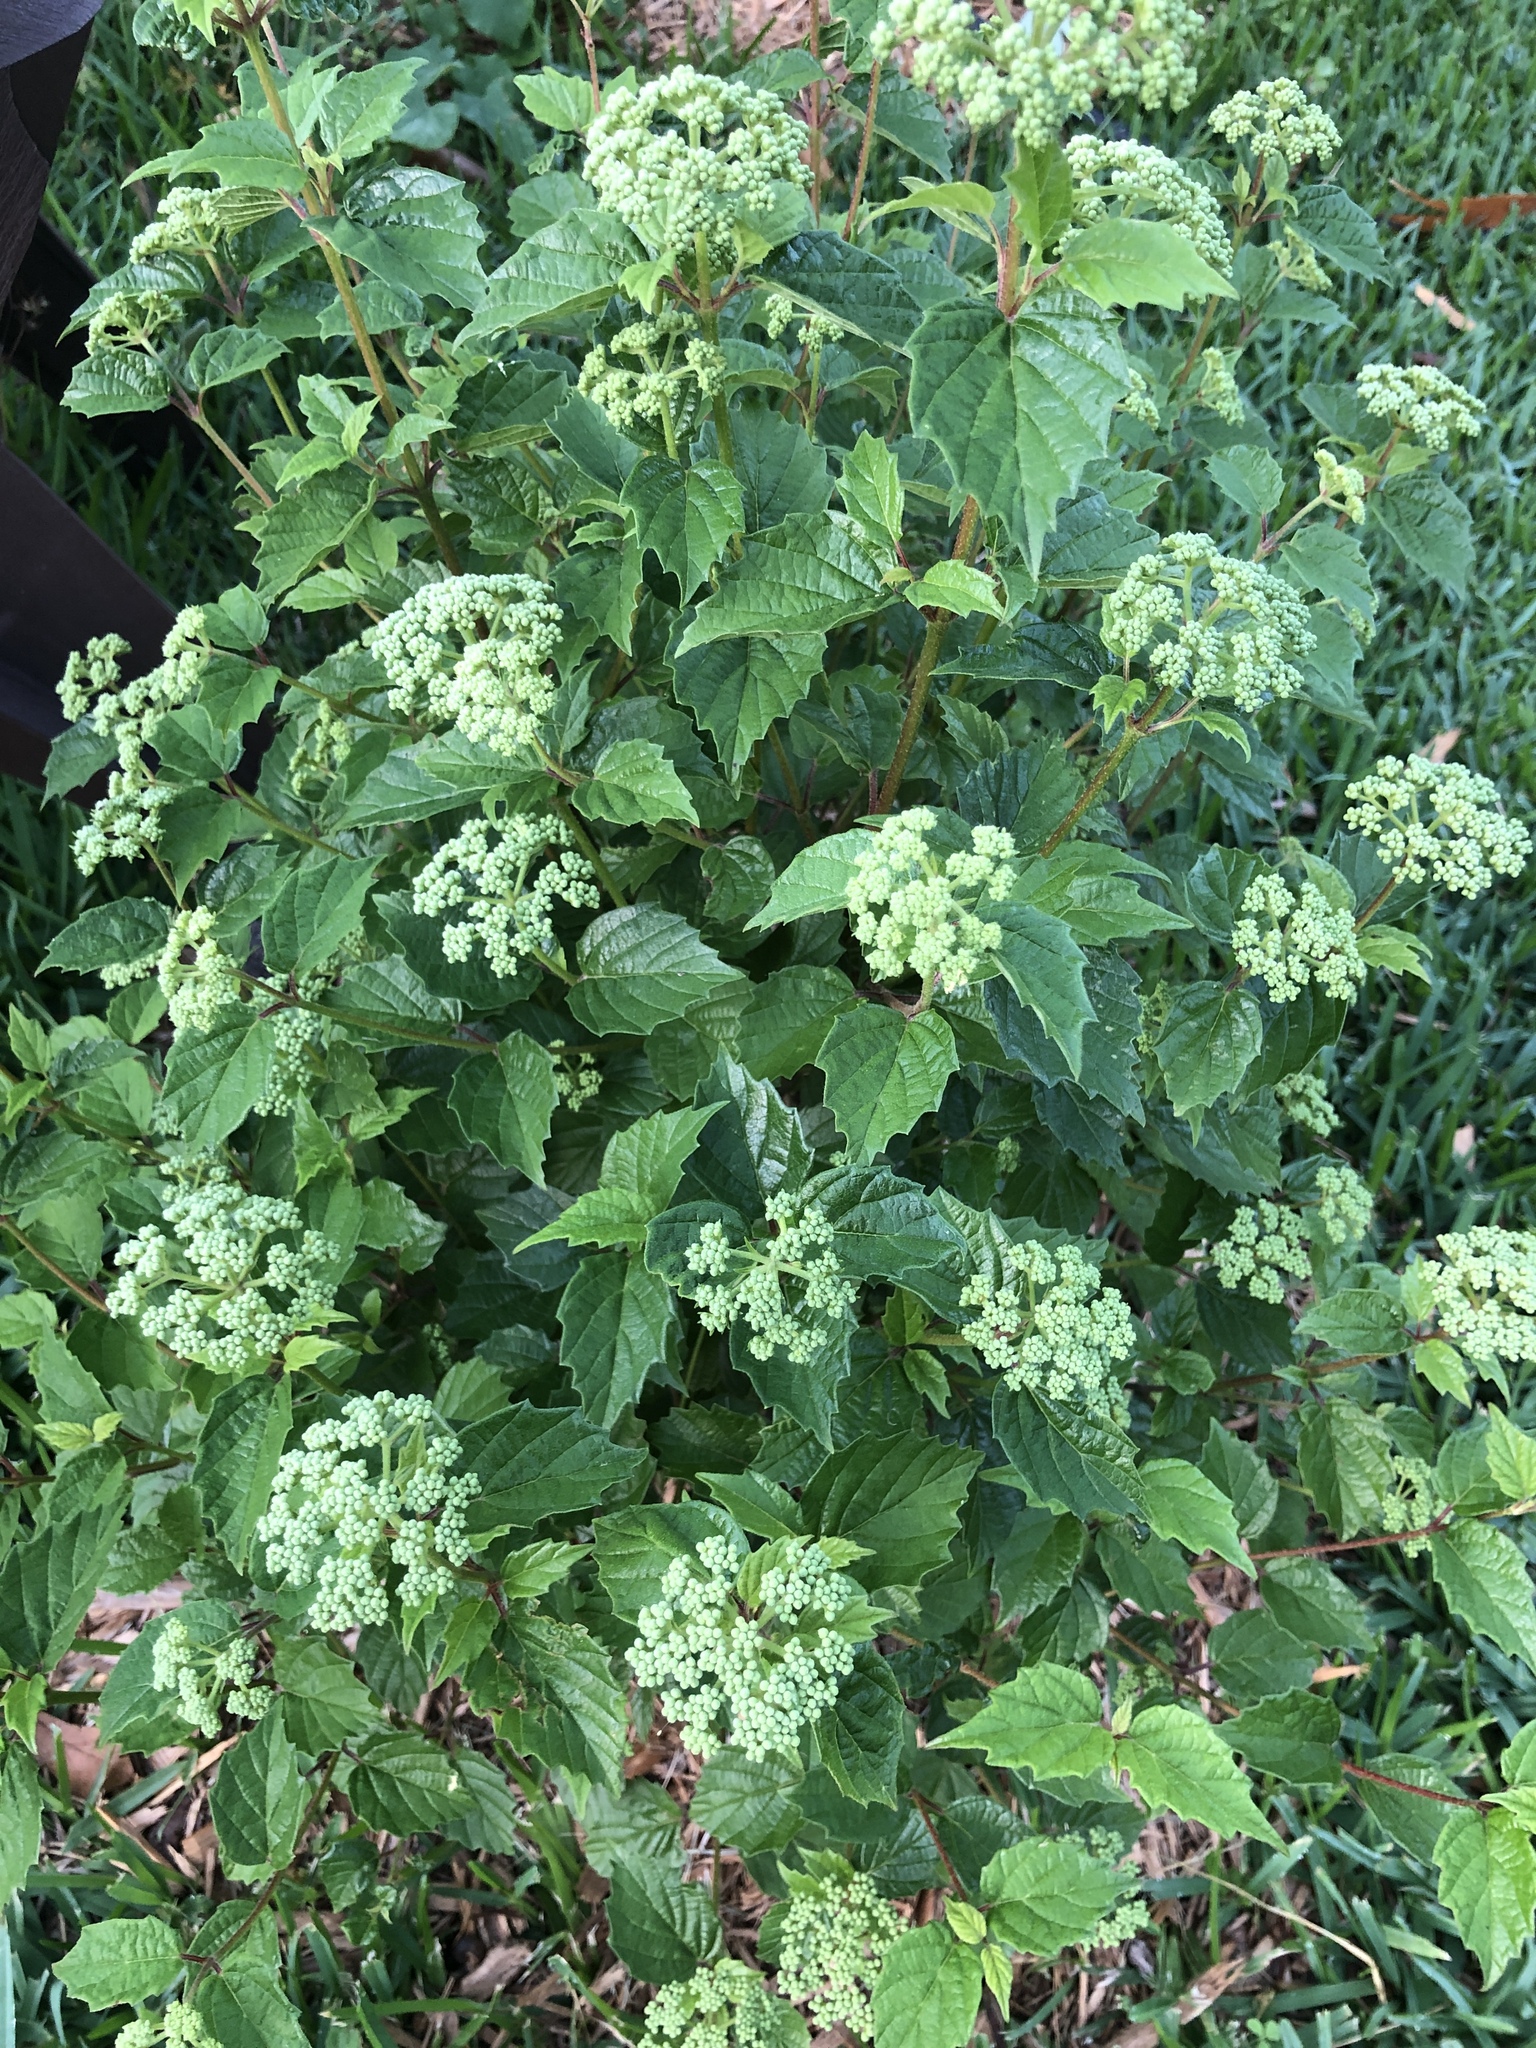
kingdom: Plantae
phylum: Tracheophyta
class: Magnoliopsida
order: Dipsacales
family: Viburnaceae
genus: Viburnum
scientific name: Viburnum scabrellum
